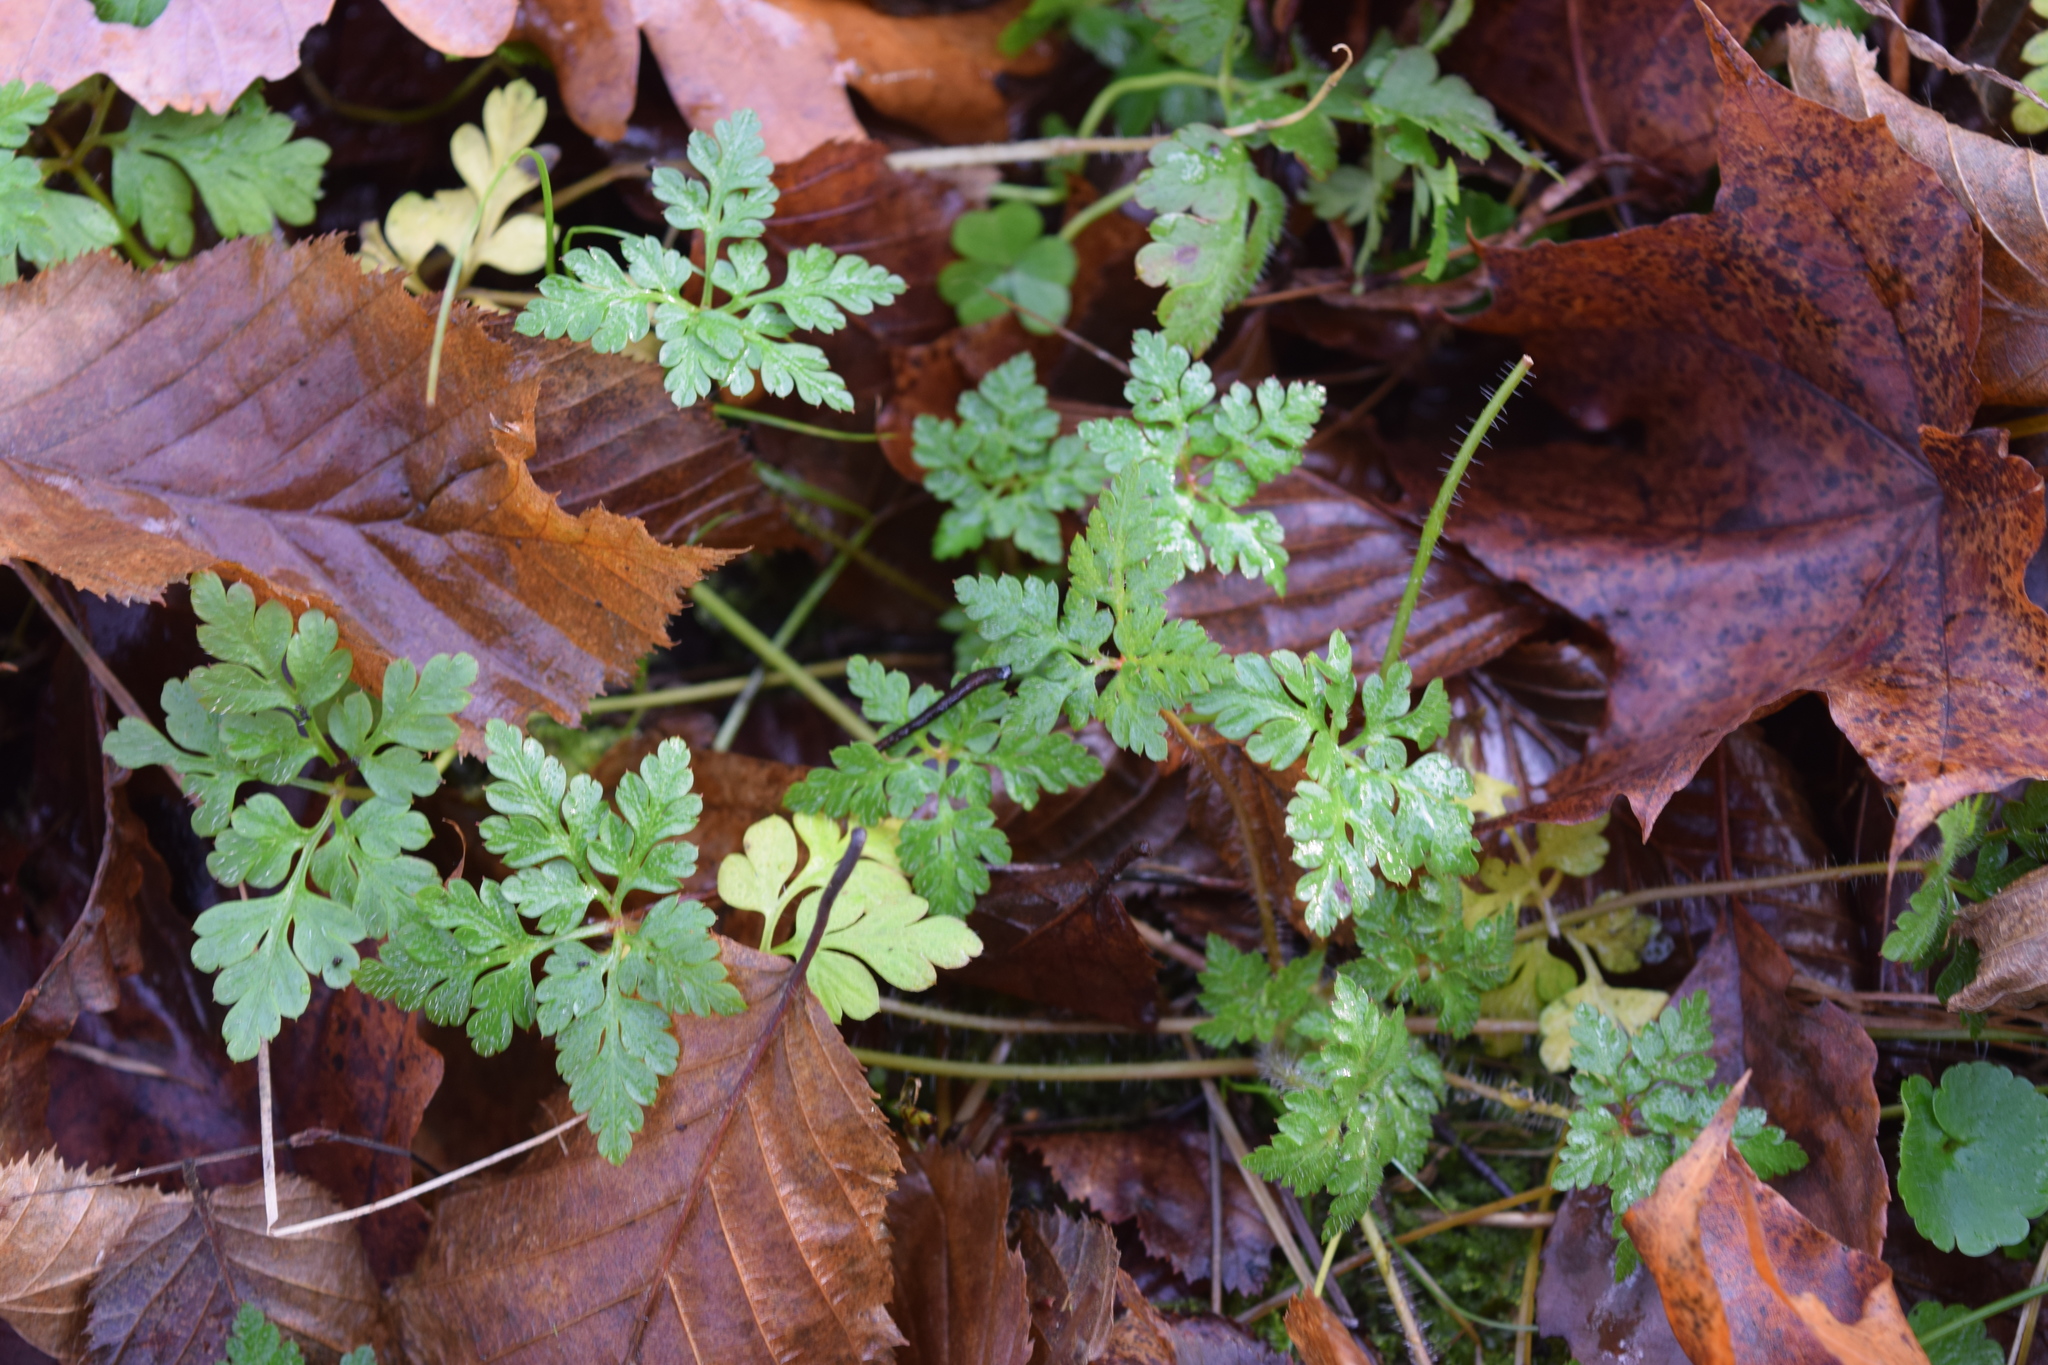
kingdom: Plantae
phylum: Tracheophyta
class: Magnoliopsida
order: Geraniales
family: Geraniaceae
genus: Geranium
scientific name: Geranium robertianum
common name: Herb-robert
